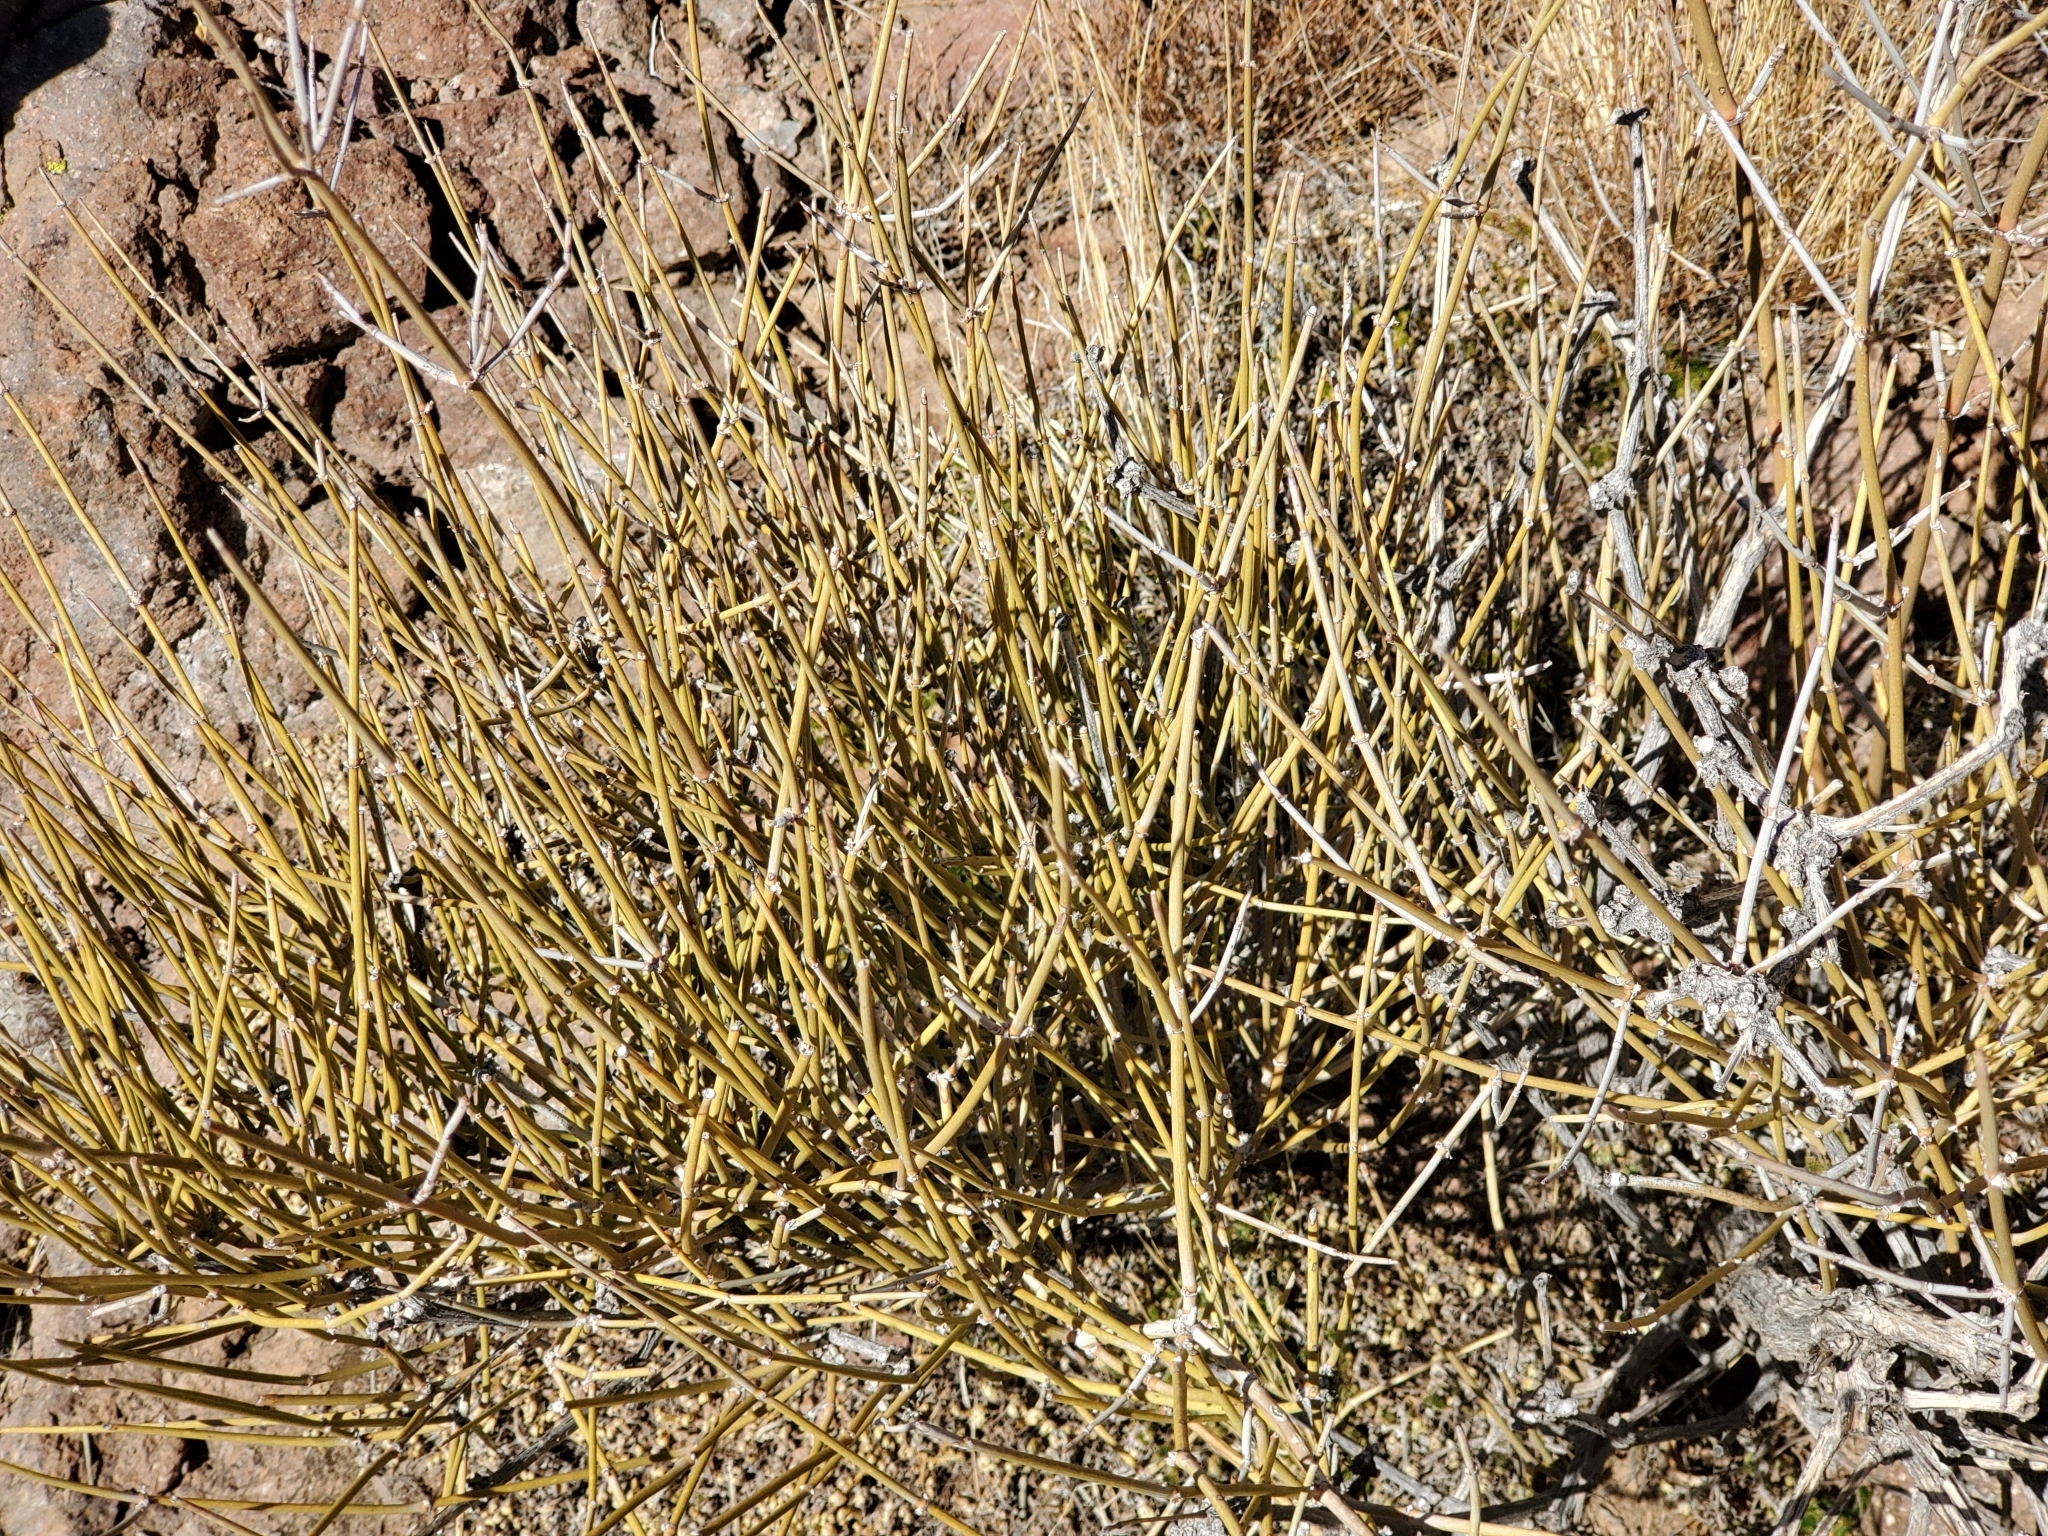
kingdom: Plantae
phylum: Tracheophyta
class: Gnetopsida
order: Ephedrales
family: Ephedraceae
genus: Ephedra
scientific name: Ephedra
